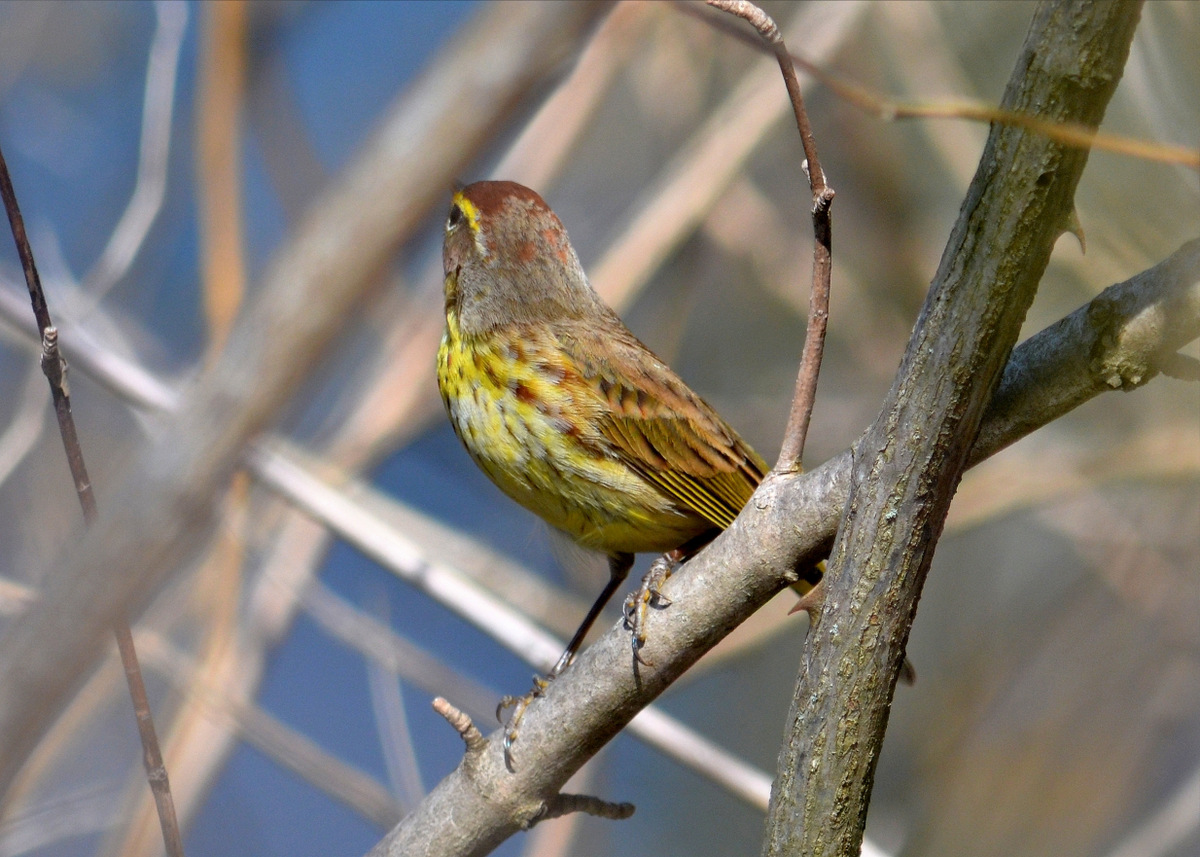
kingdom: Animalia
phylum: Chordata
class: Aves
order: Passeriformes
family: Parulidae
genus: Setophaga
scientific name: Setophaga palmarum
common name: Palm warbler
